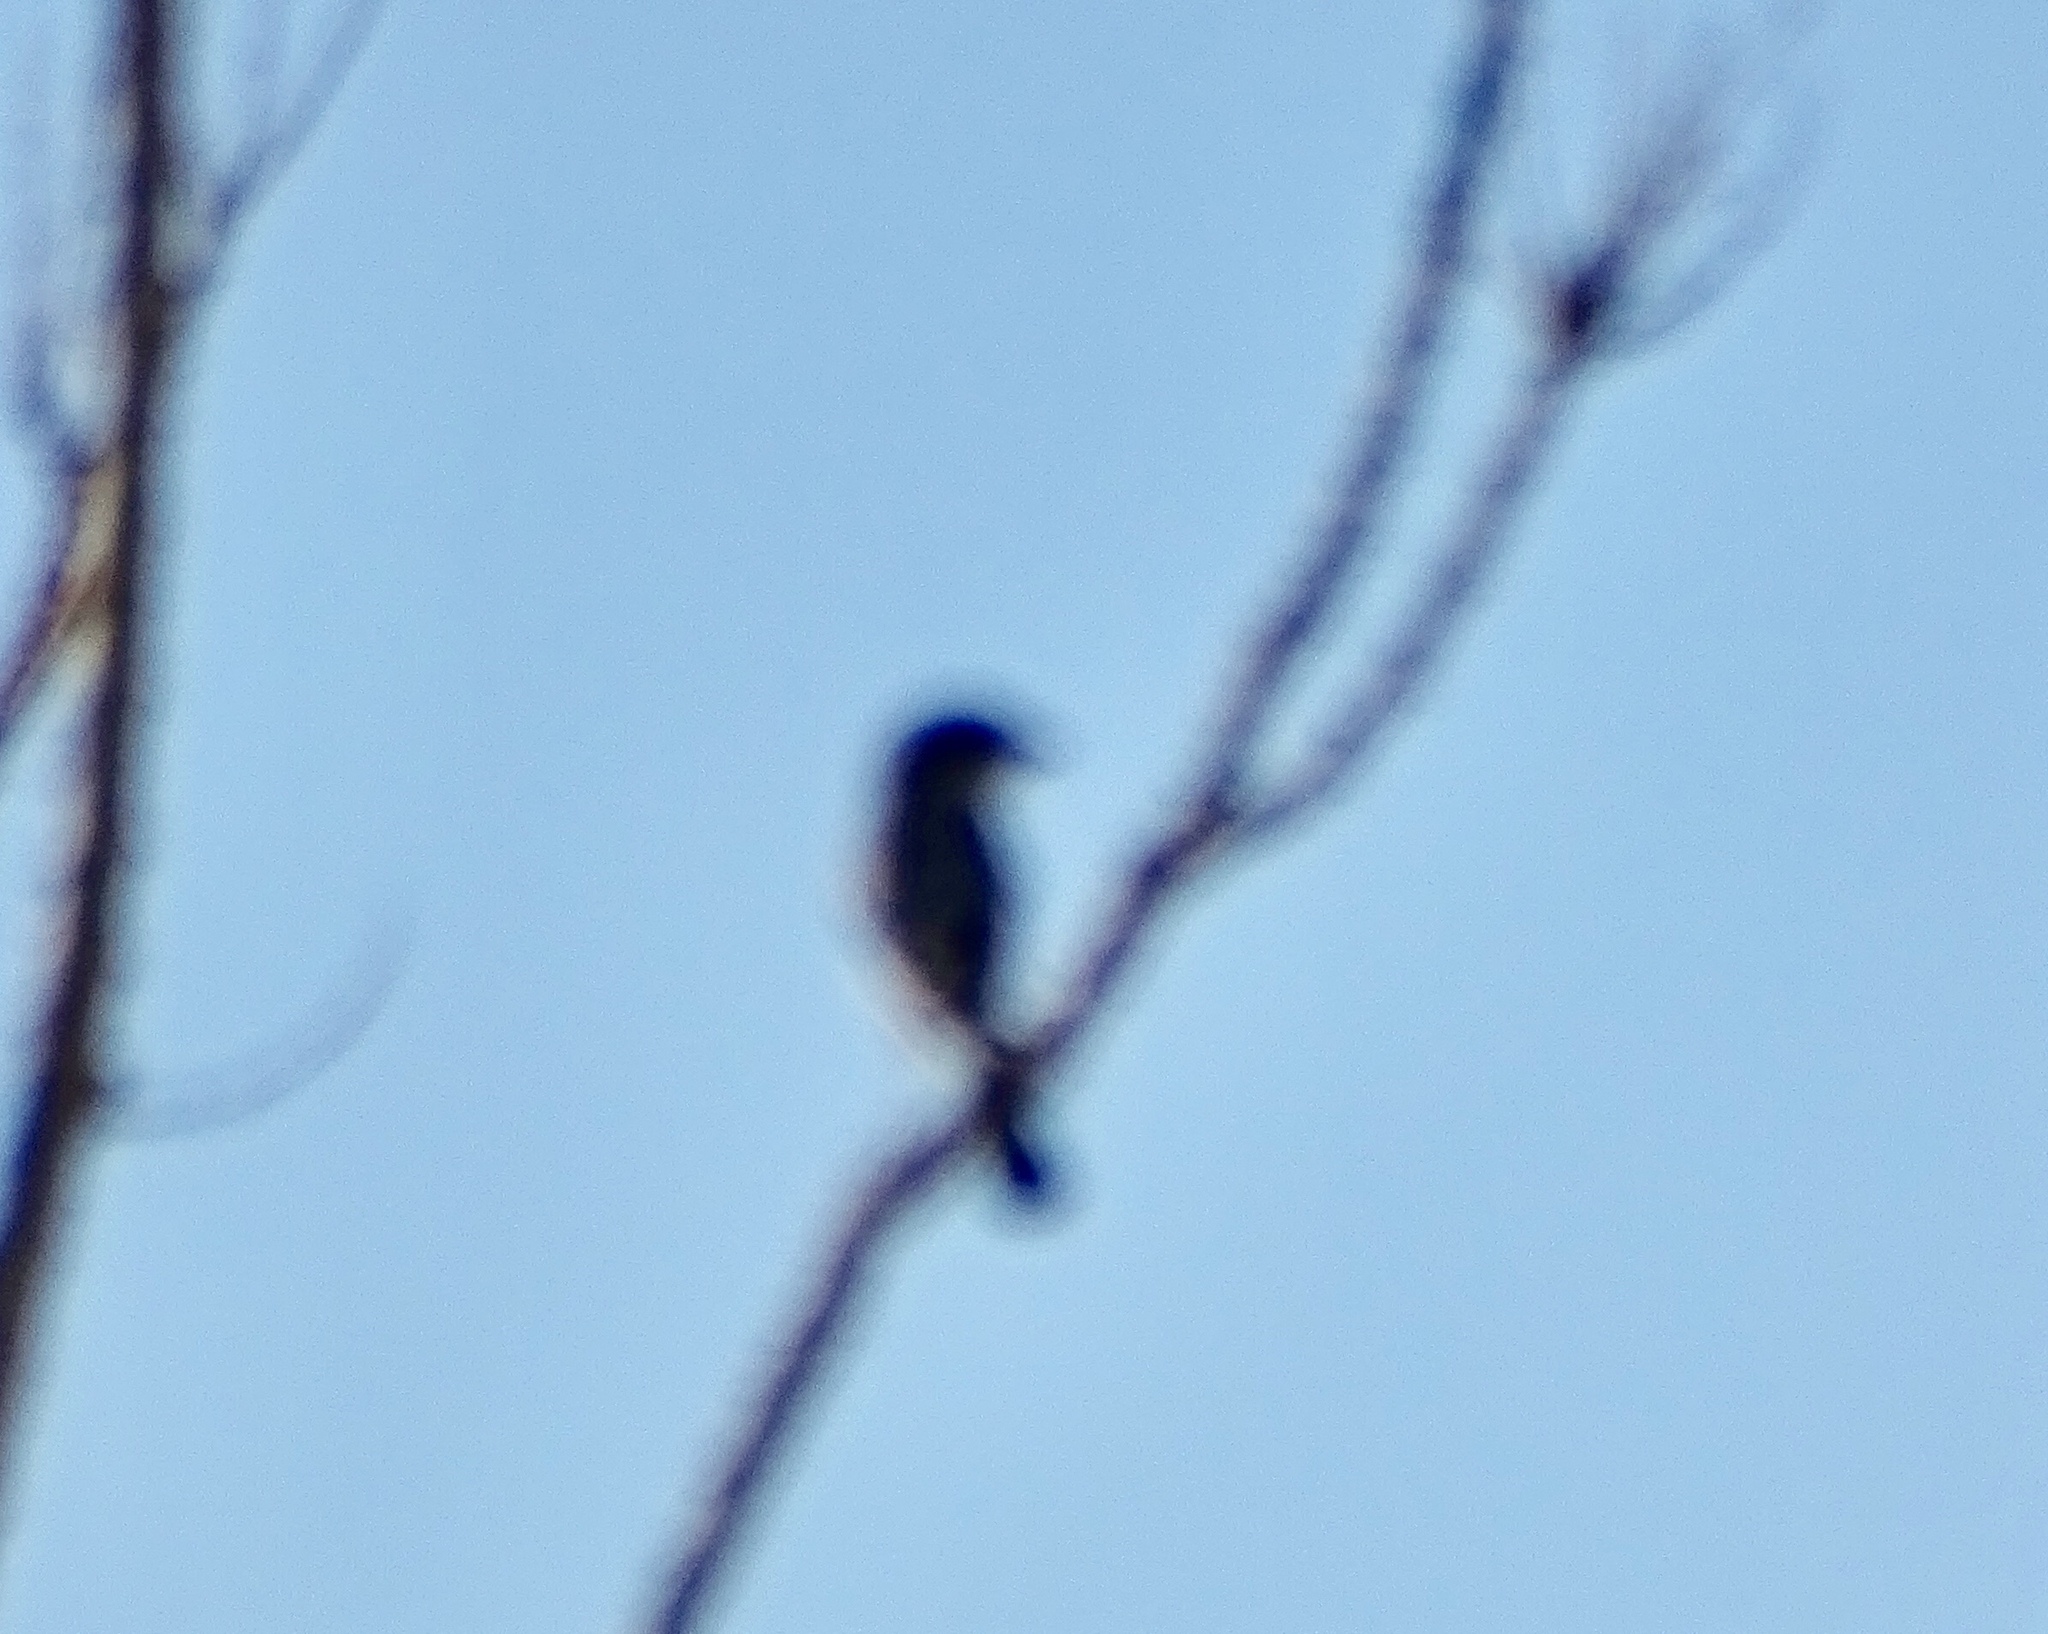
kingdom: Animalia
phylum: Chordata
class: Aves
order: Passeriformes
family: Laniidae
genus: Lanius
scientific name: Lanius ludovicianus
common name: Loggerhead shrike
